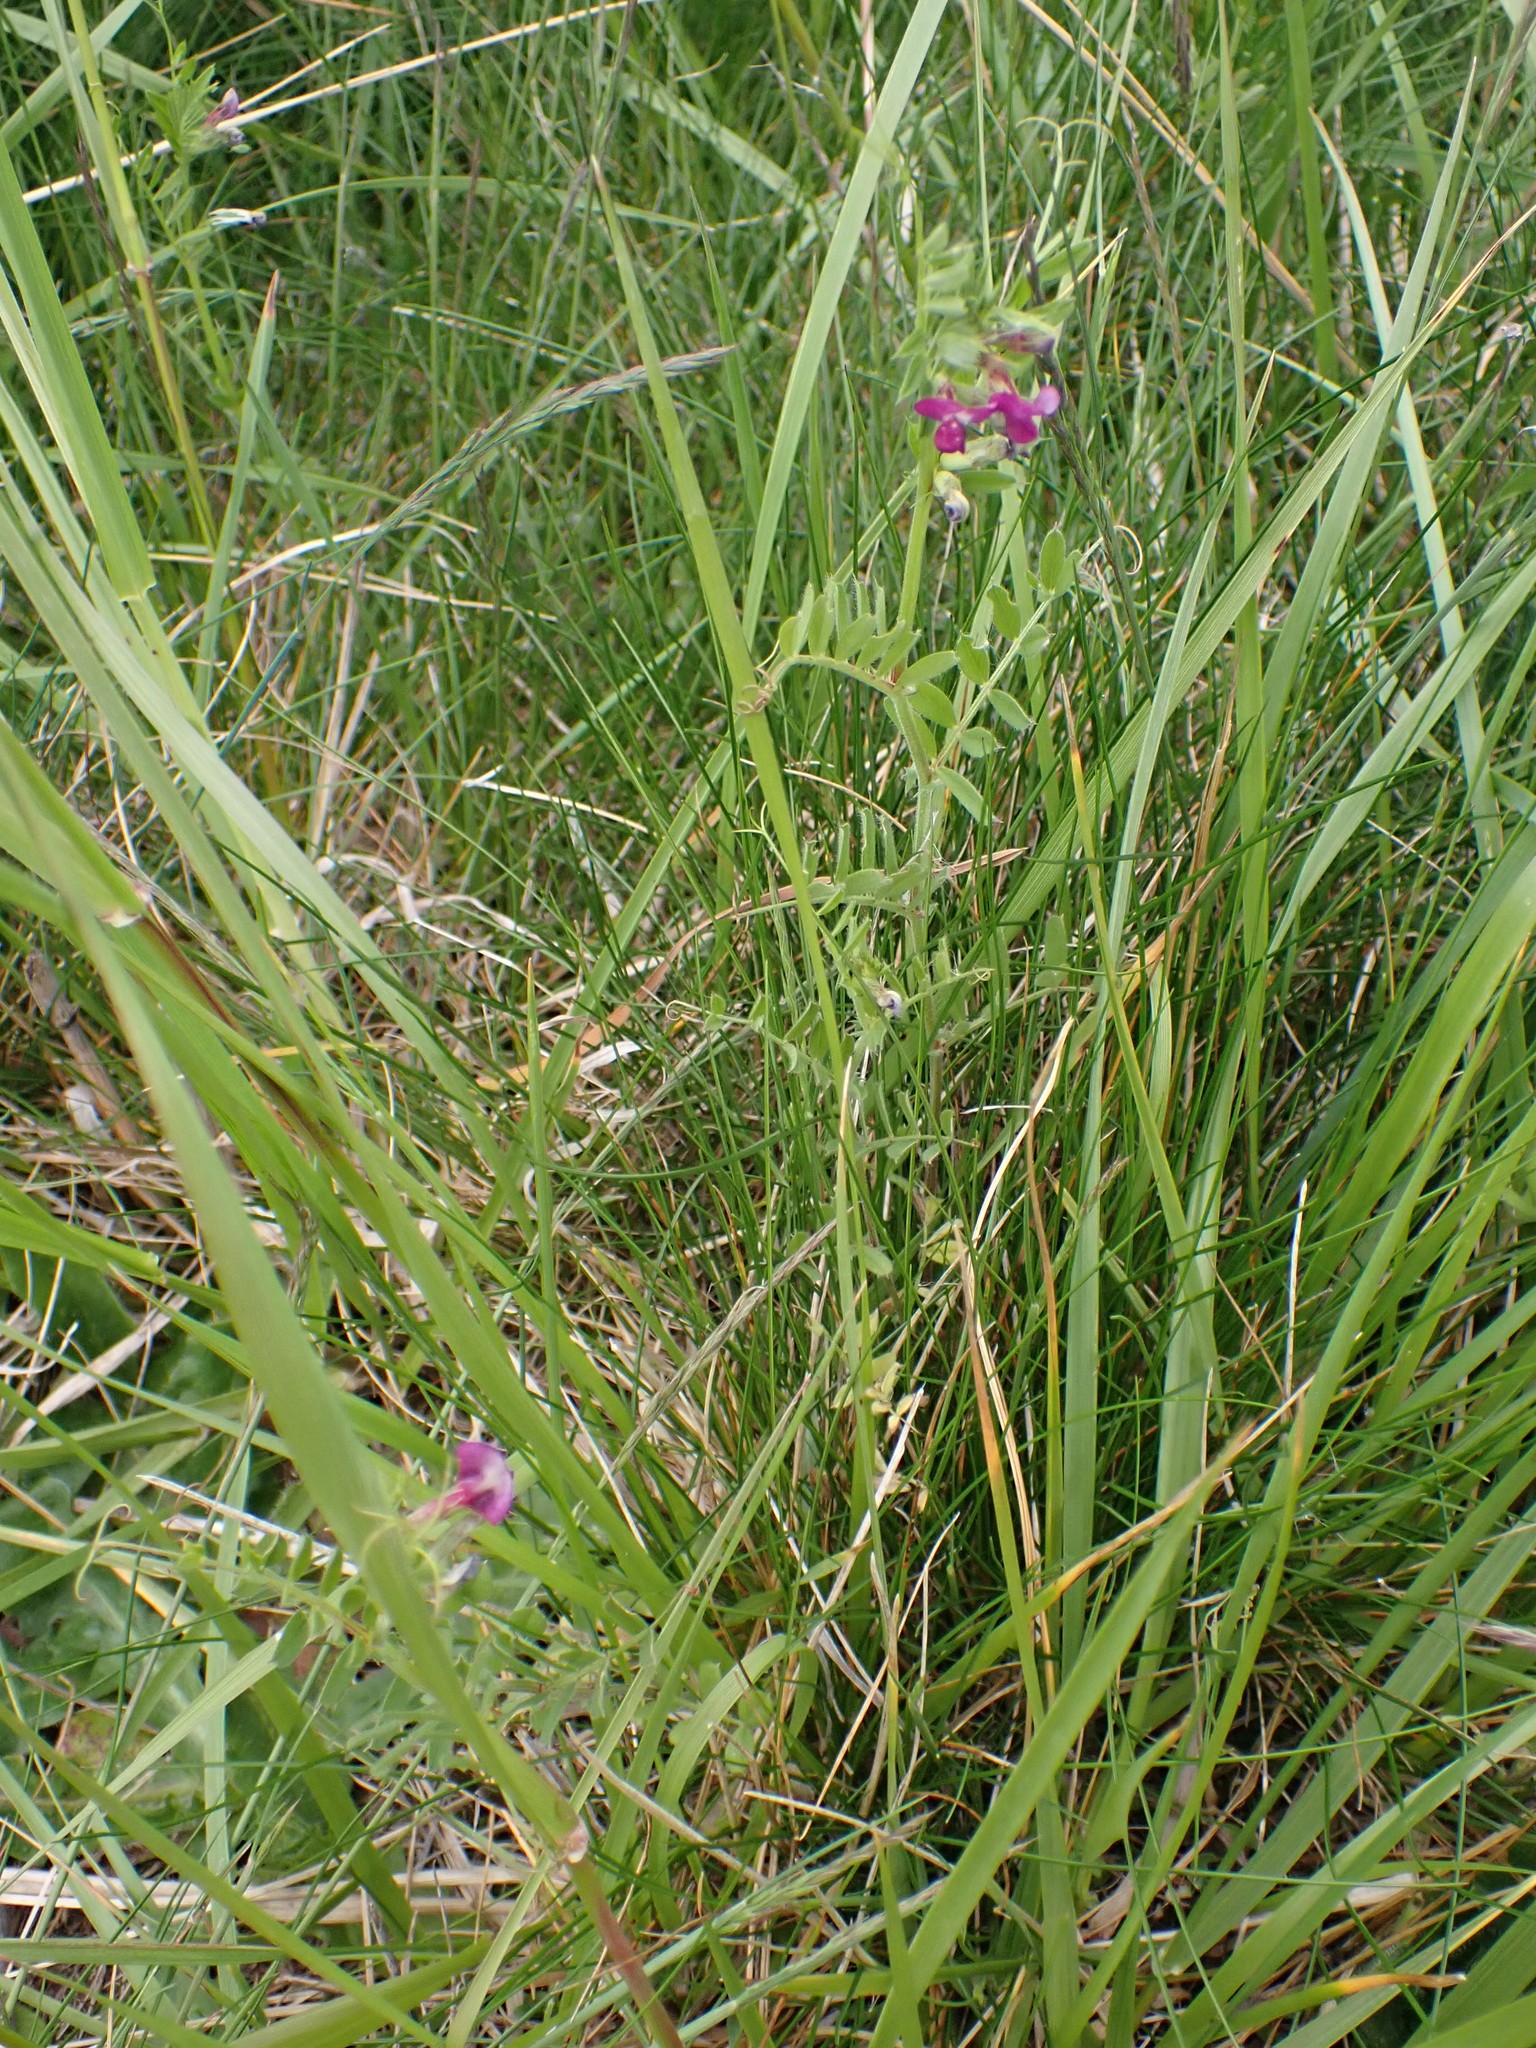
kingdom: Plantae
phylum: Tracheophyta
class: Magnoliopsida
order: Fabales
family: Fabaceae
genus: Vicia
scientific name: Vicia sativa
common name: Garden vetch
